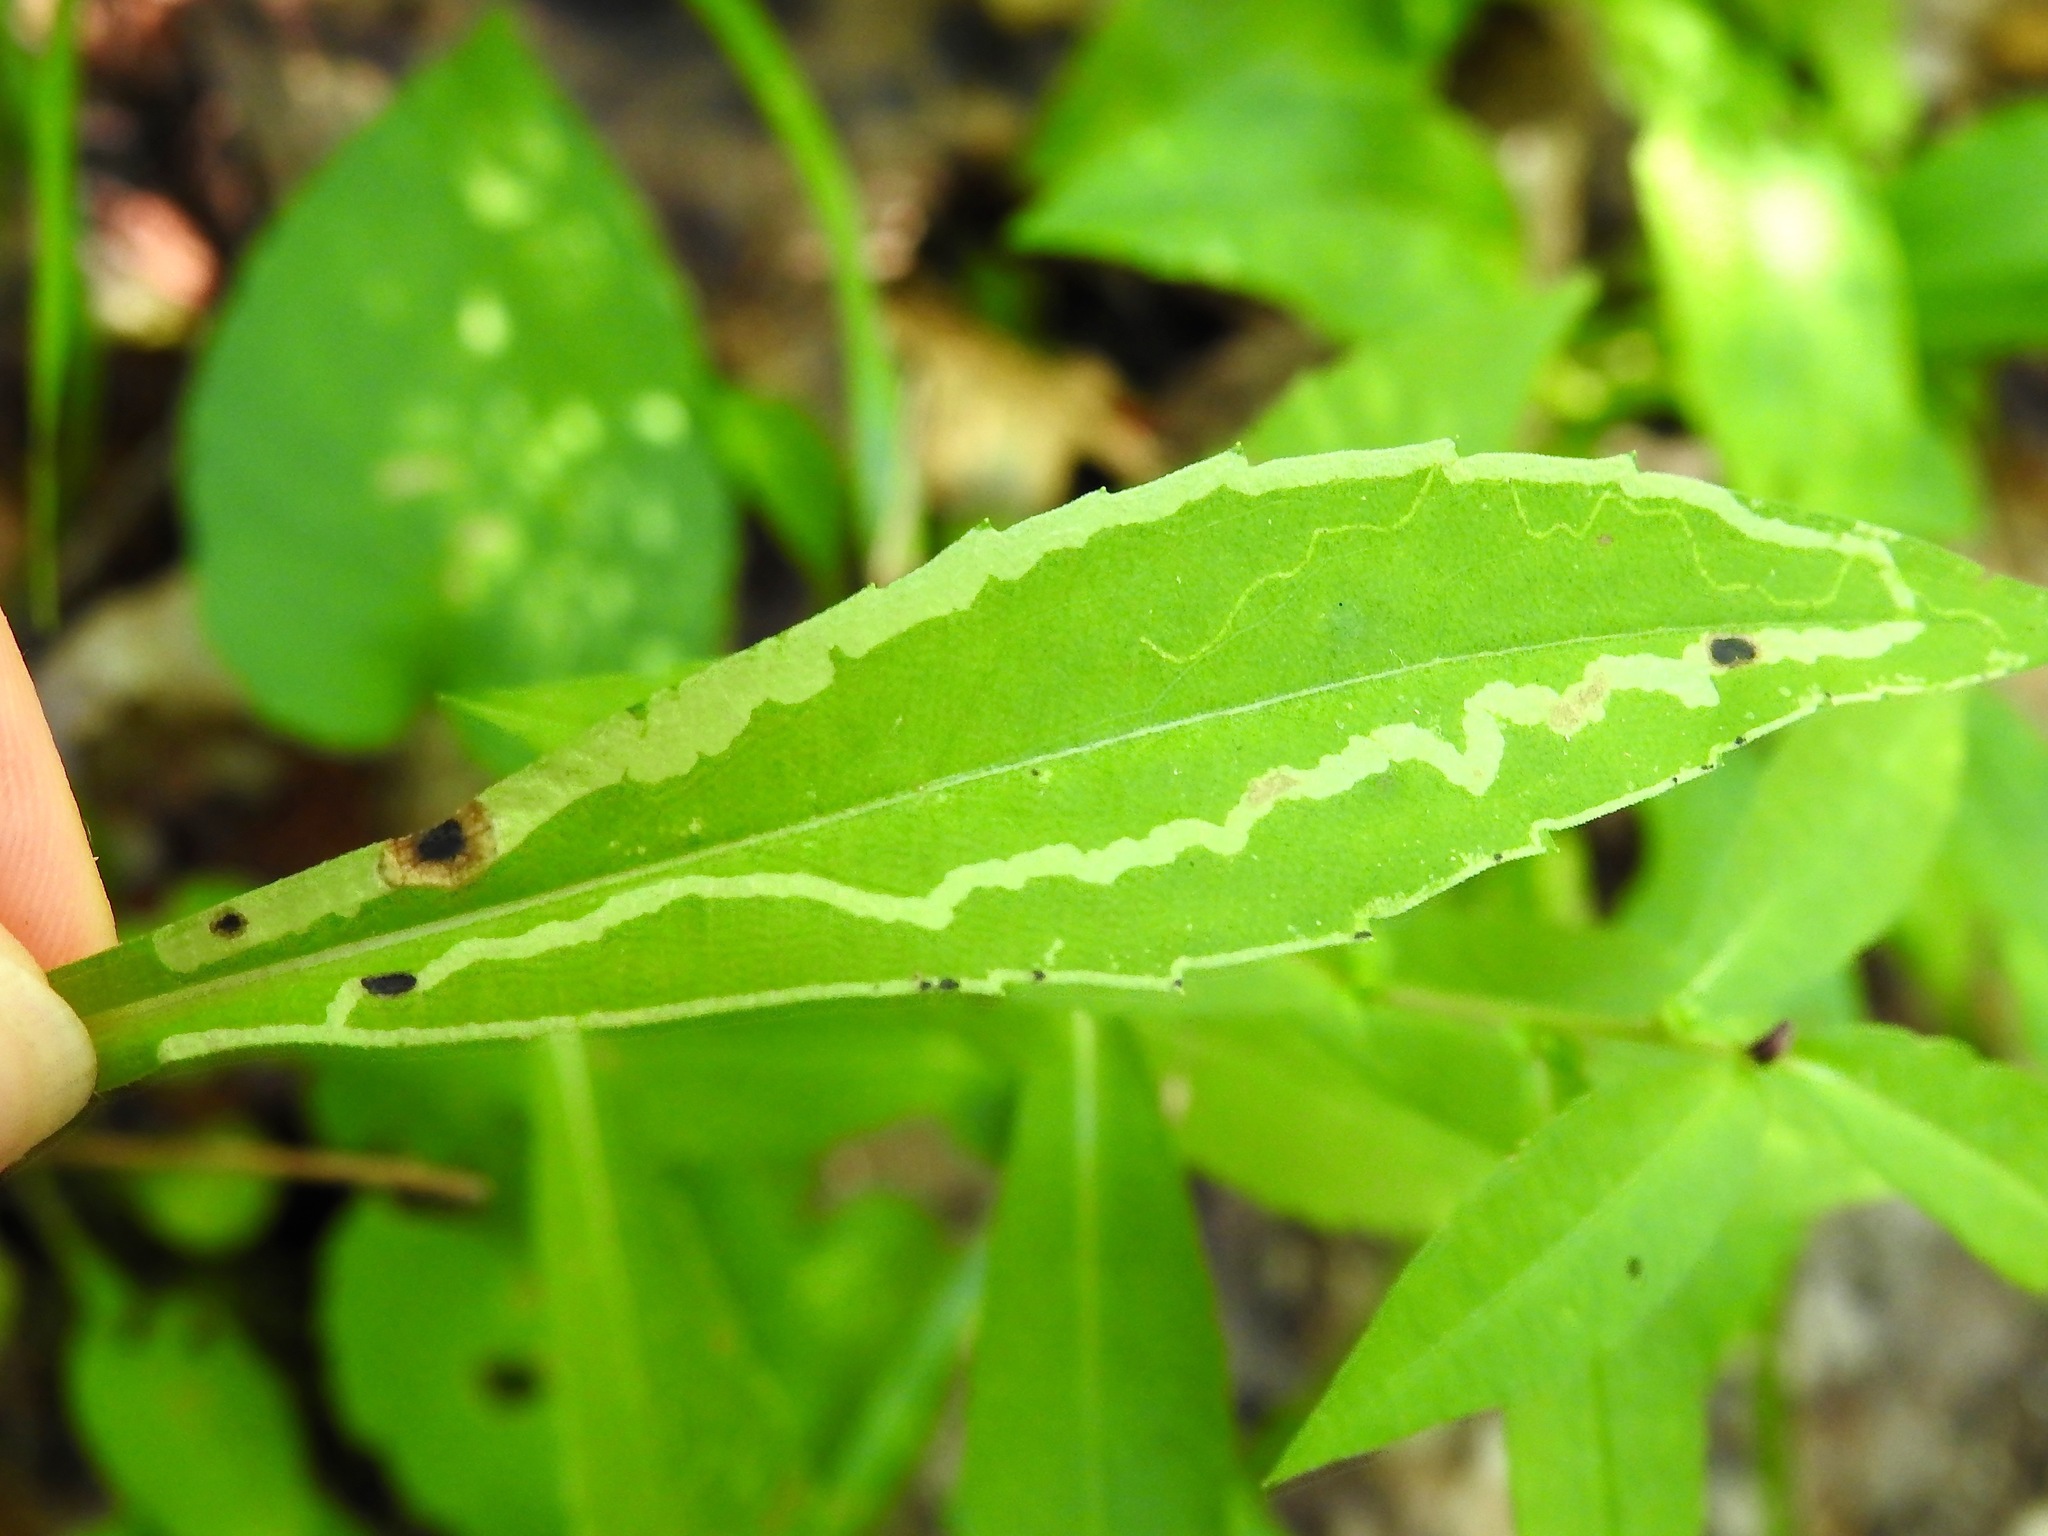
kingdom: Animalia
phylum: Arthropoda
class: Insecta
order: Diptera
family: Agromyzidae
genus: Ophiomyia
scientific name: Ophiomyia parda
